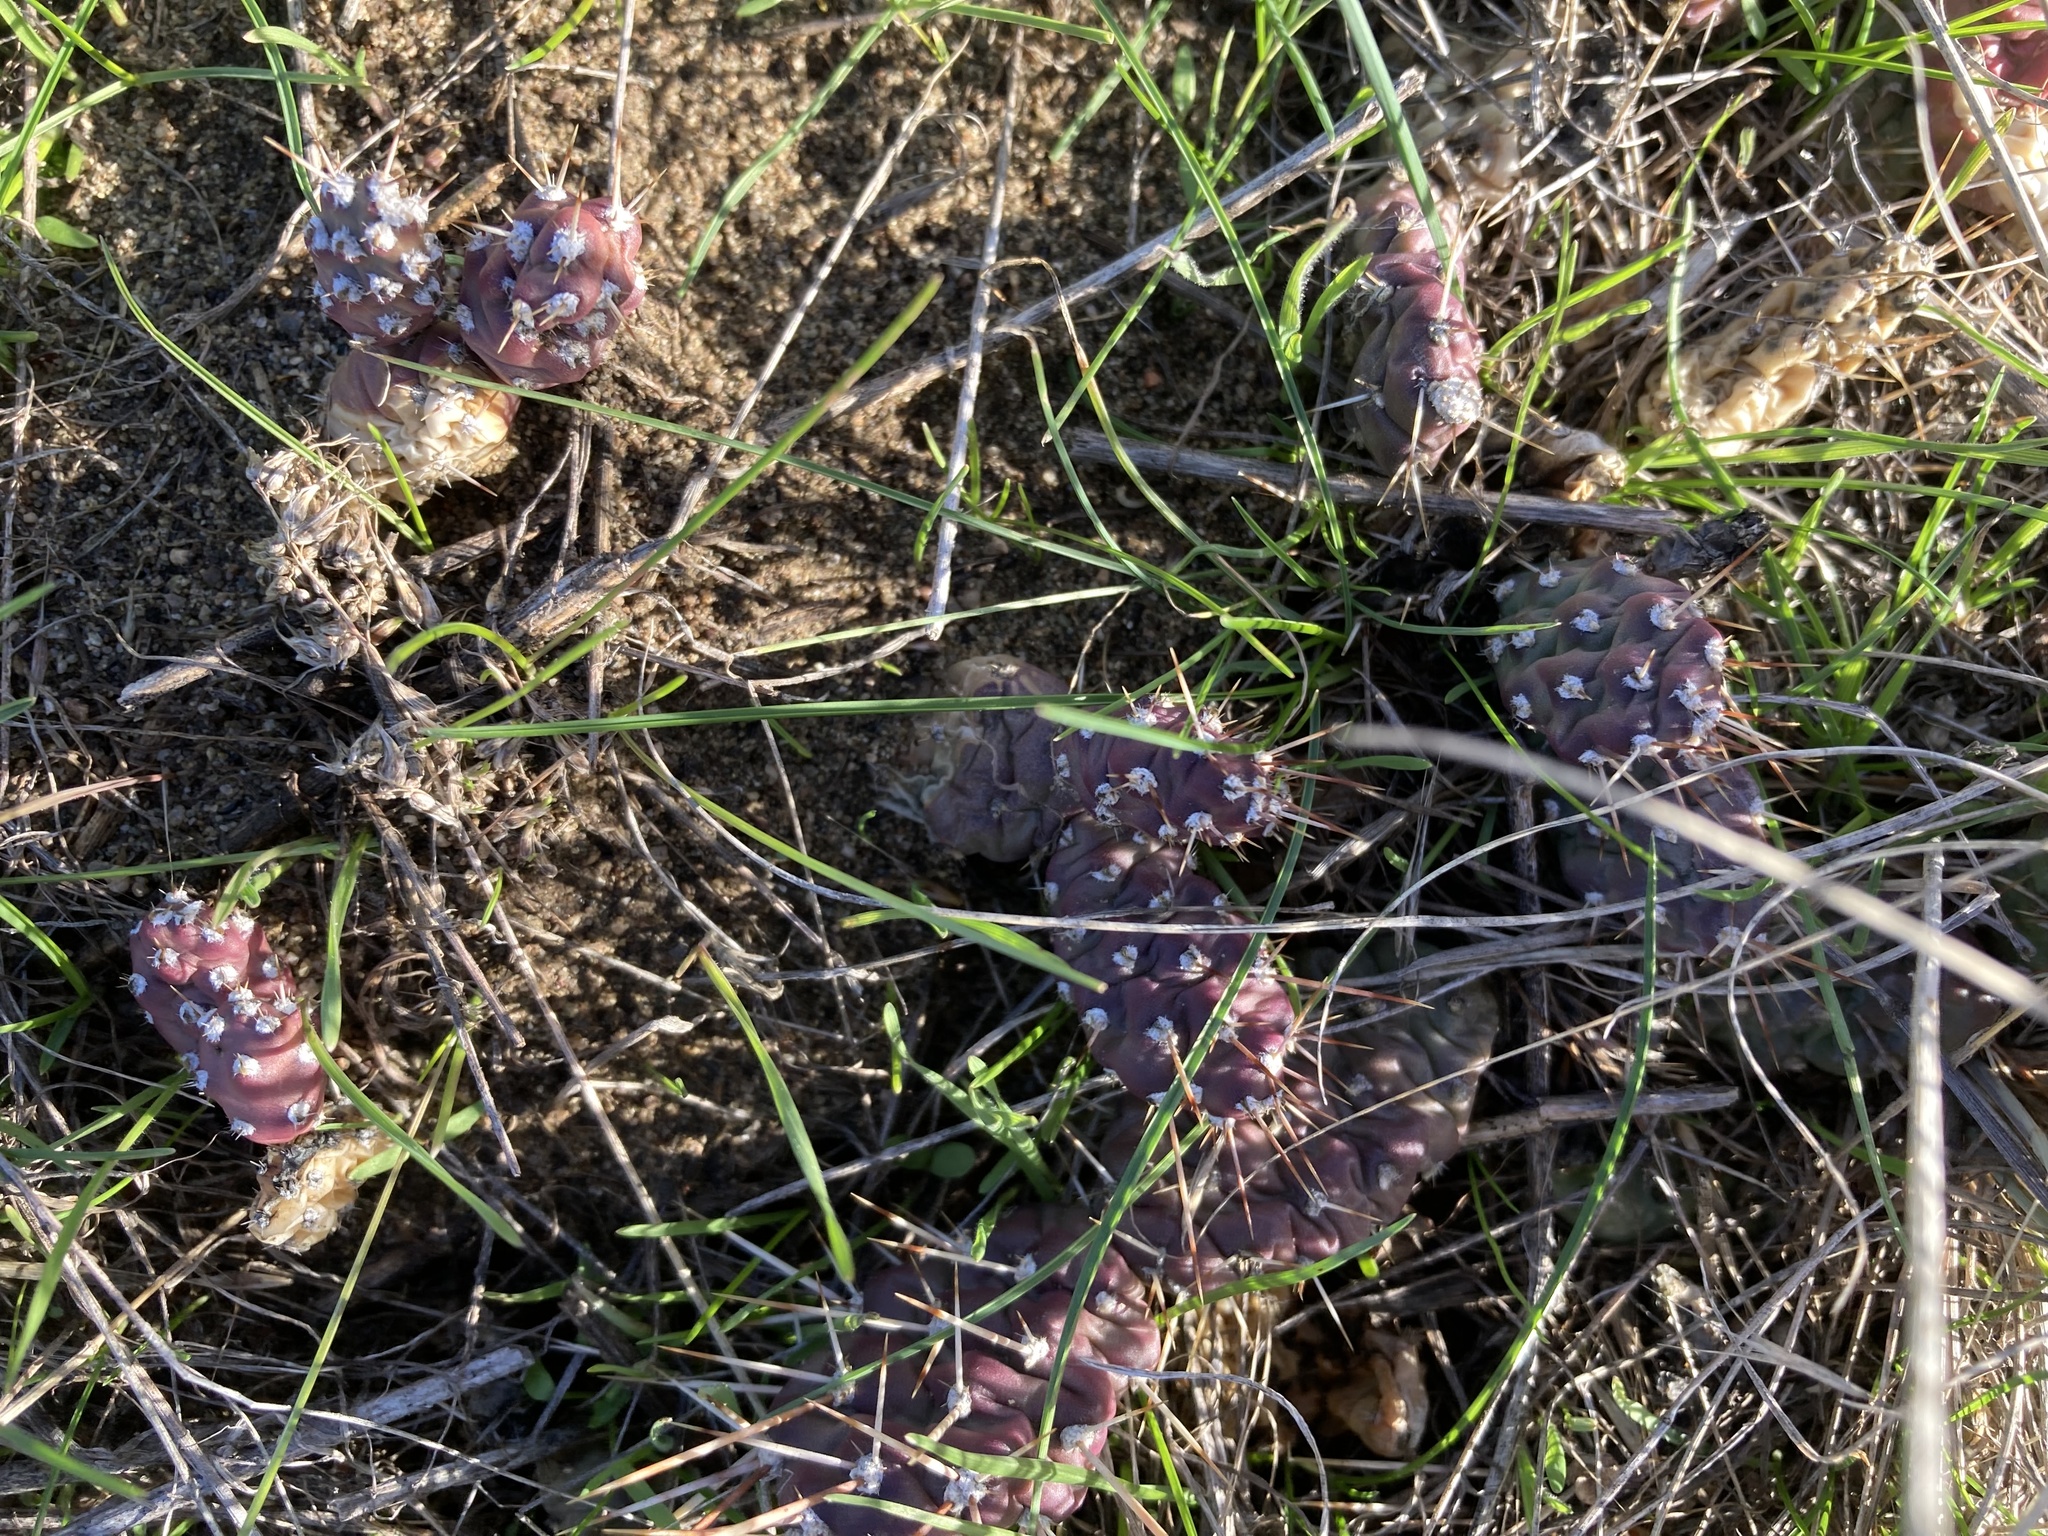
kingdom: Plantae
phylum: Tracheophyta
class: Magnoliopsida
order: Caryophyllales
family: Cactaceae
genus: Opuntia
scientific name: Opuntia fragilis
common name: Brittle cactus
